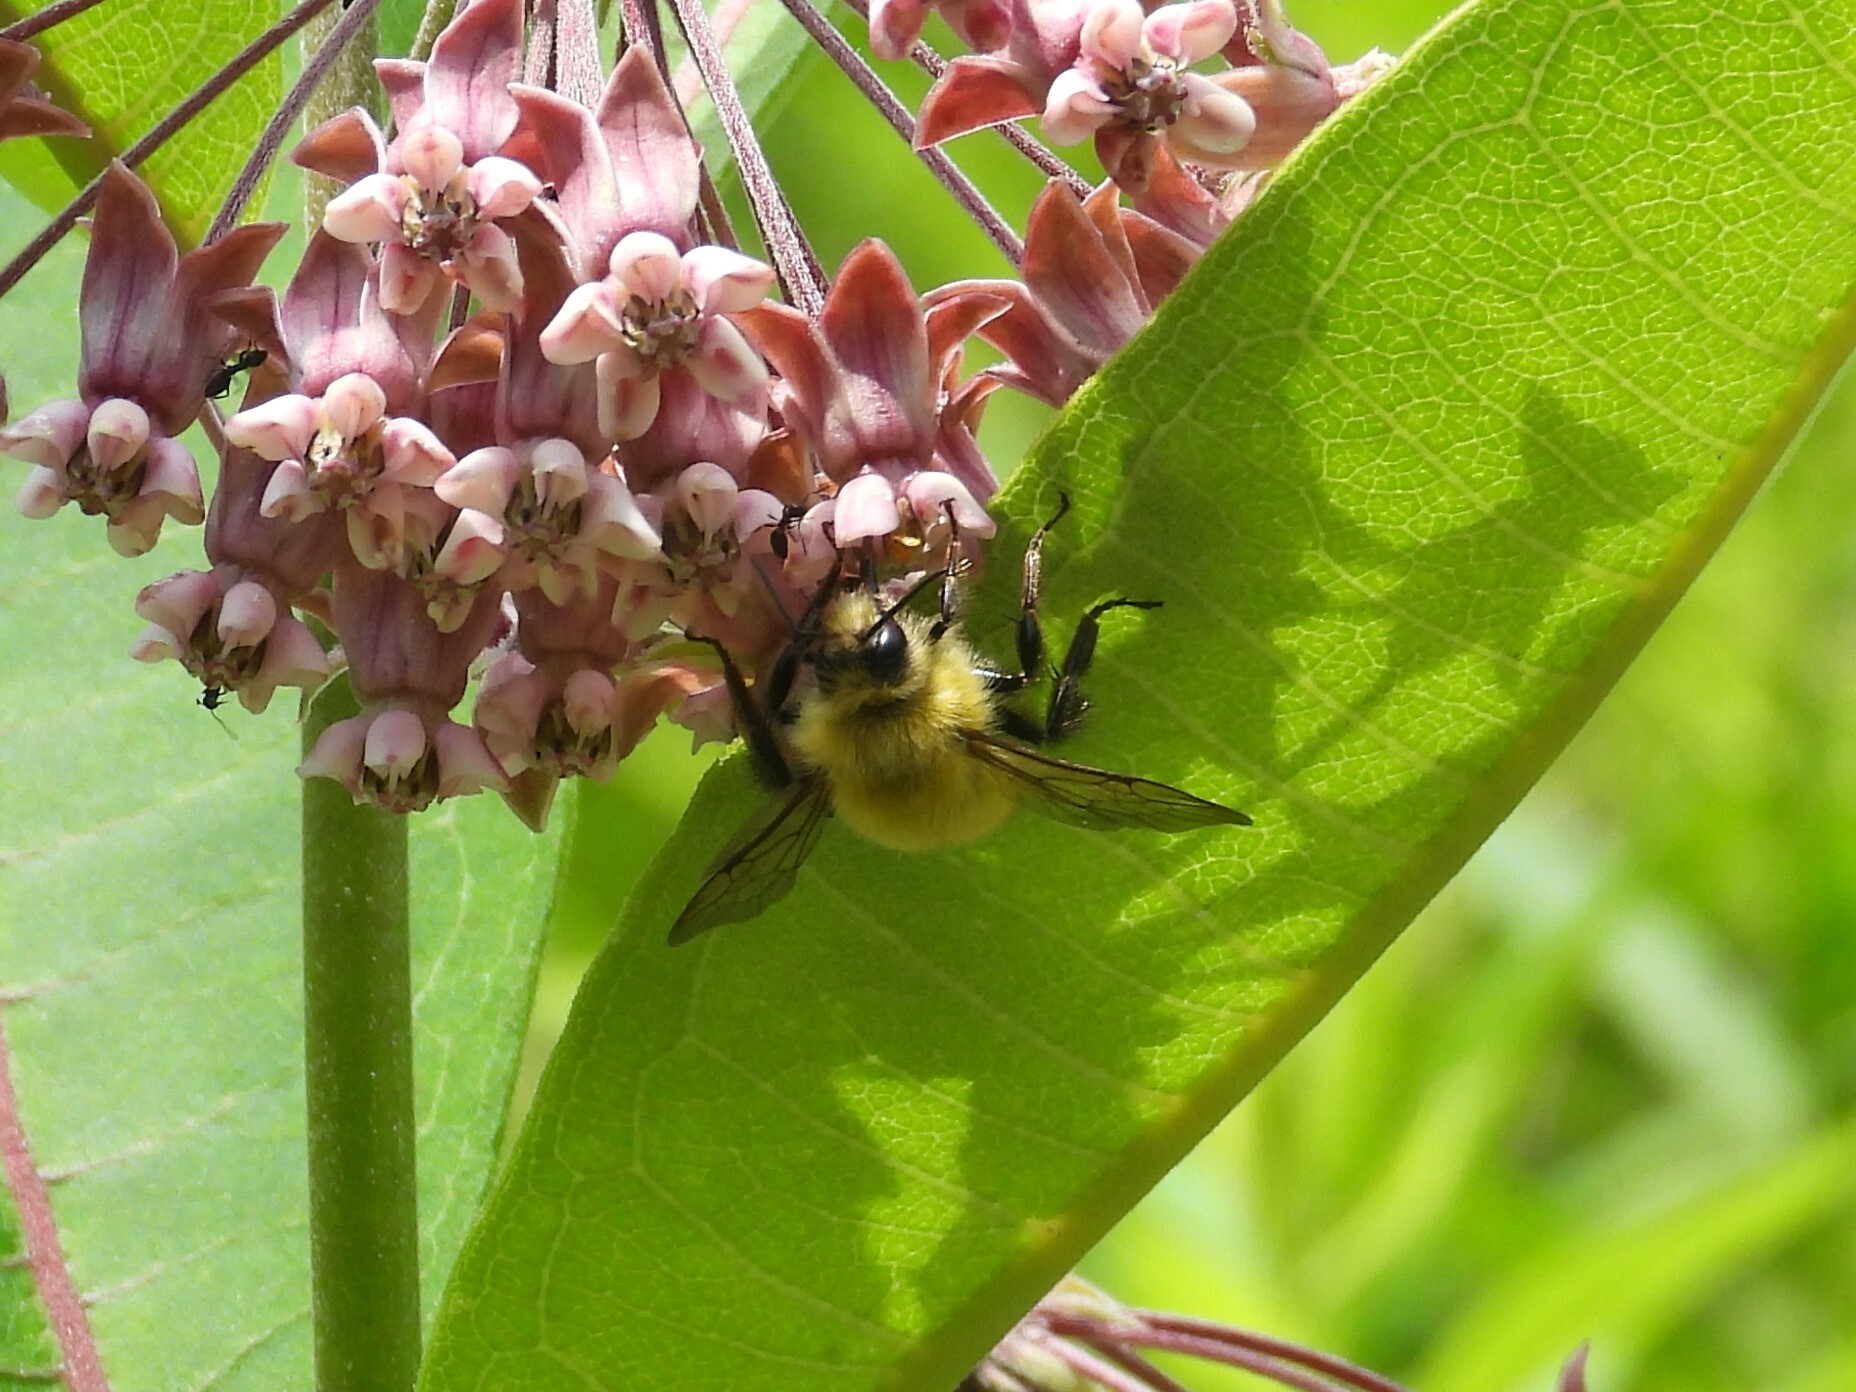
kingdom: Animalia
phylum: Arthropoda
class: Insecta
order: Hymenoptera
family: Apidae
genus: Bombus
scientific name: Bombus perplexus
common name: Confusing bumble bee
